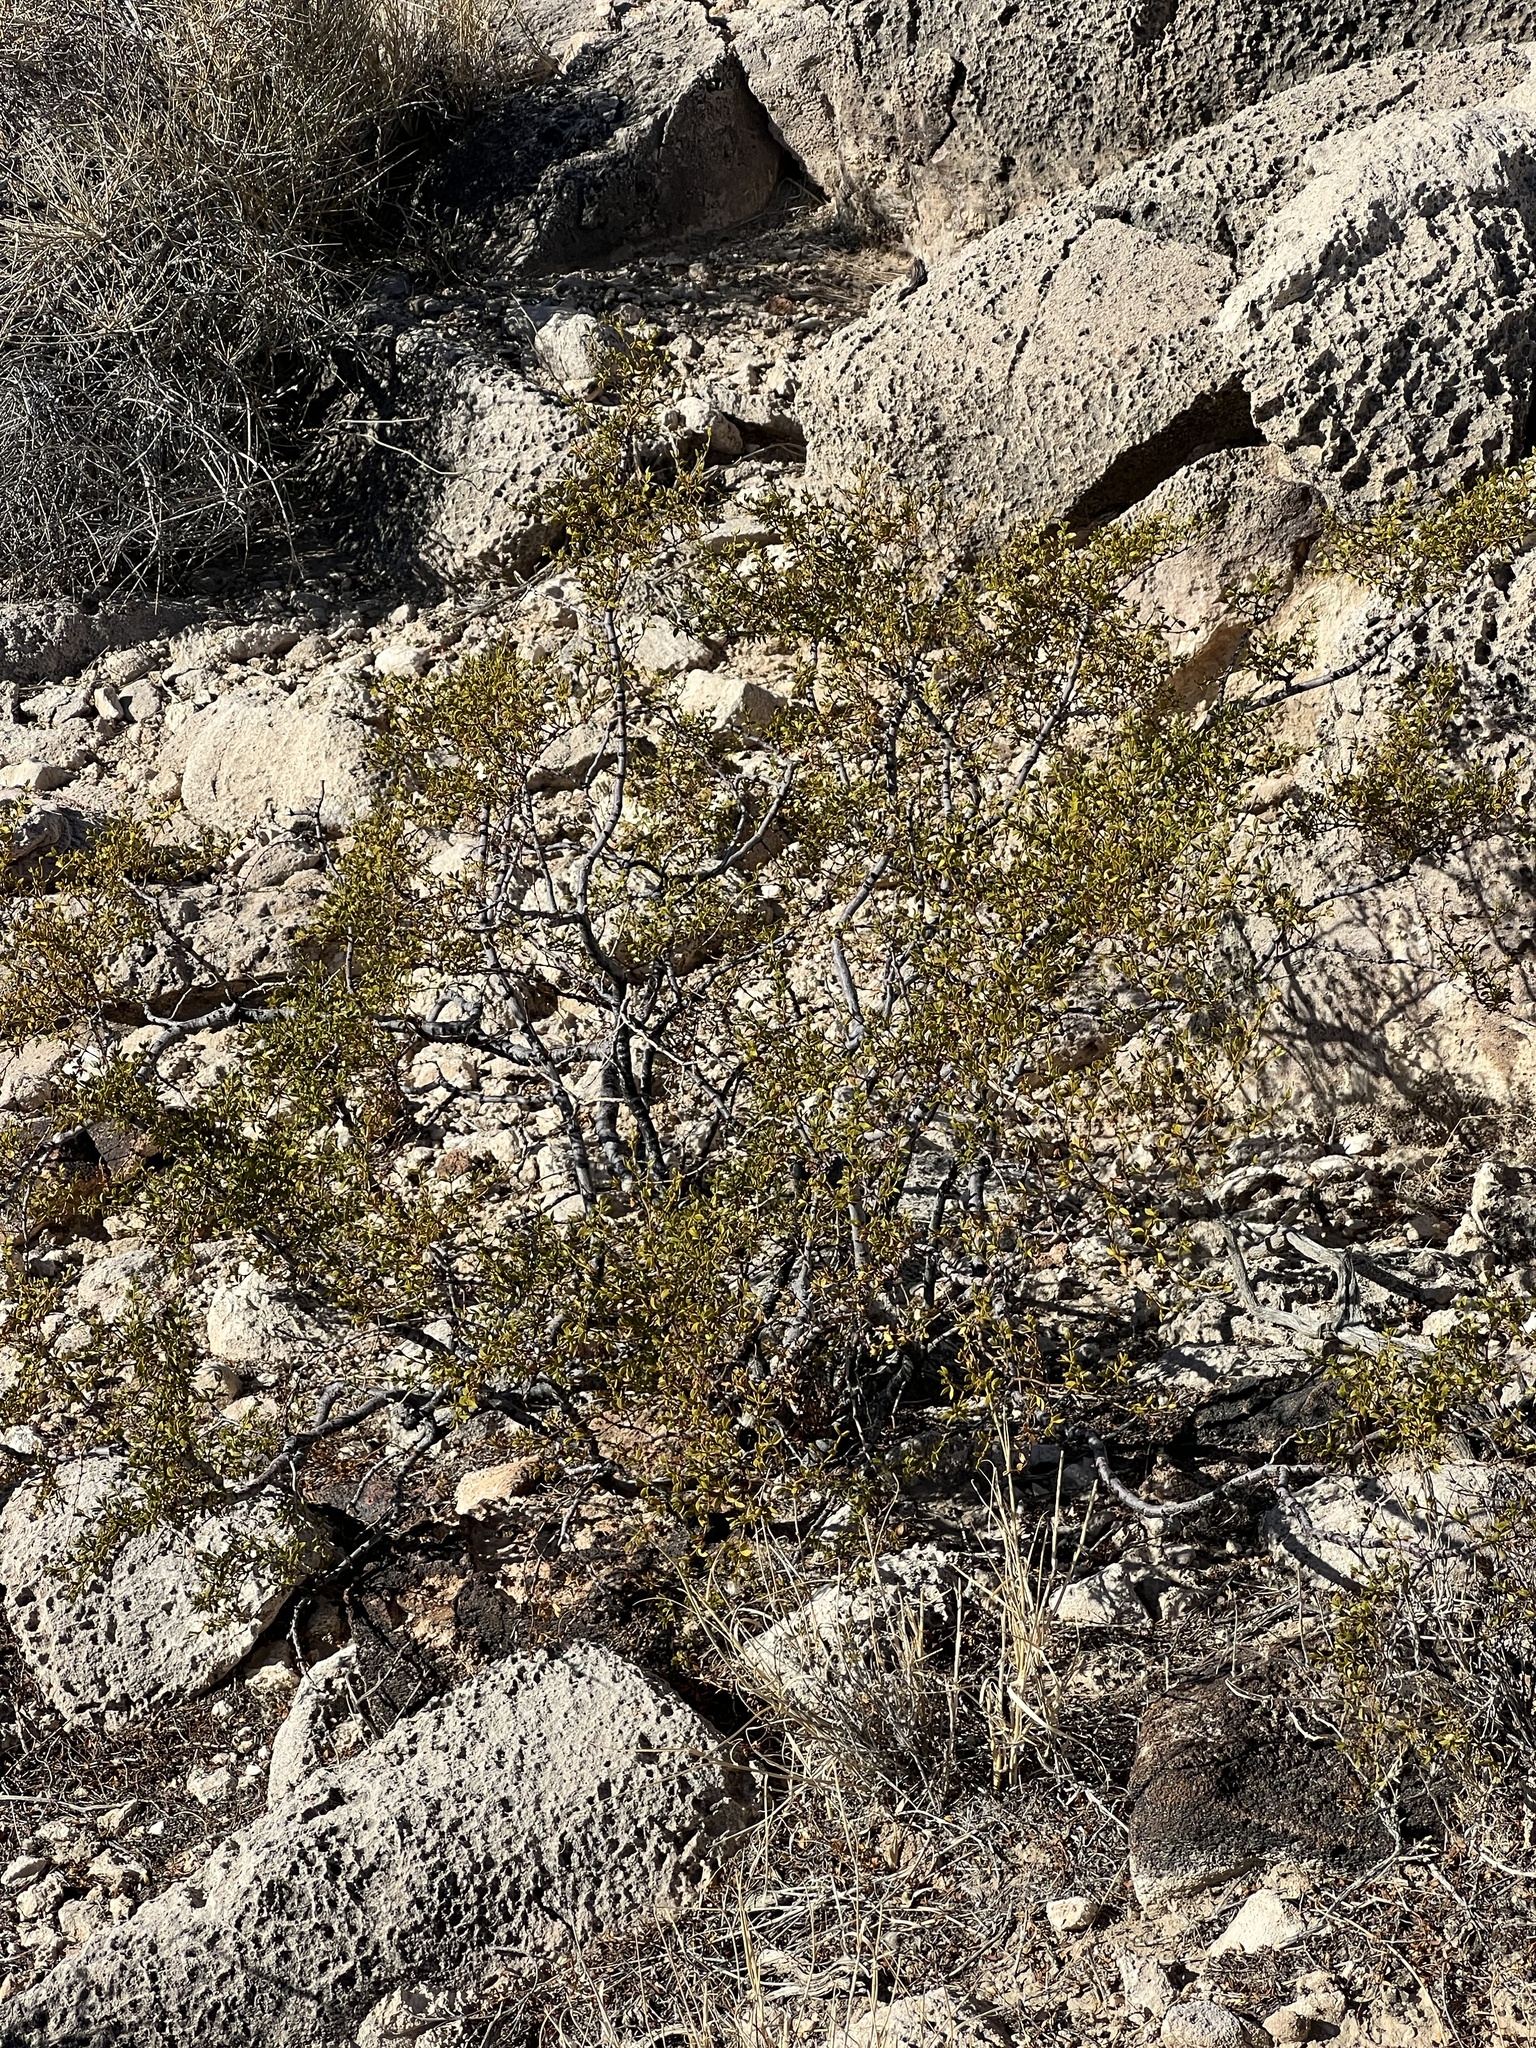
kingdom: Plantae
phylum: Tracheophyta
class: Magnoliopsida
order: Zygophyllales
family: Zygophyllaceae
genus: Larrea
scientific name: Larrea tridentata
